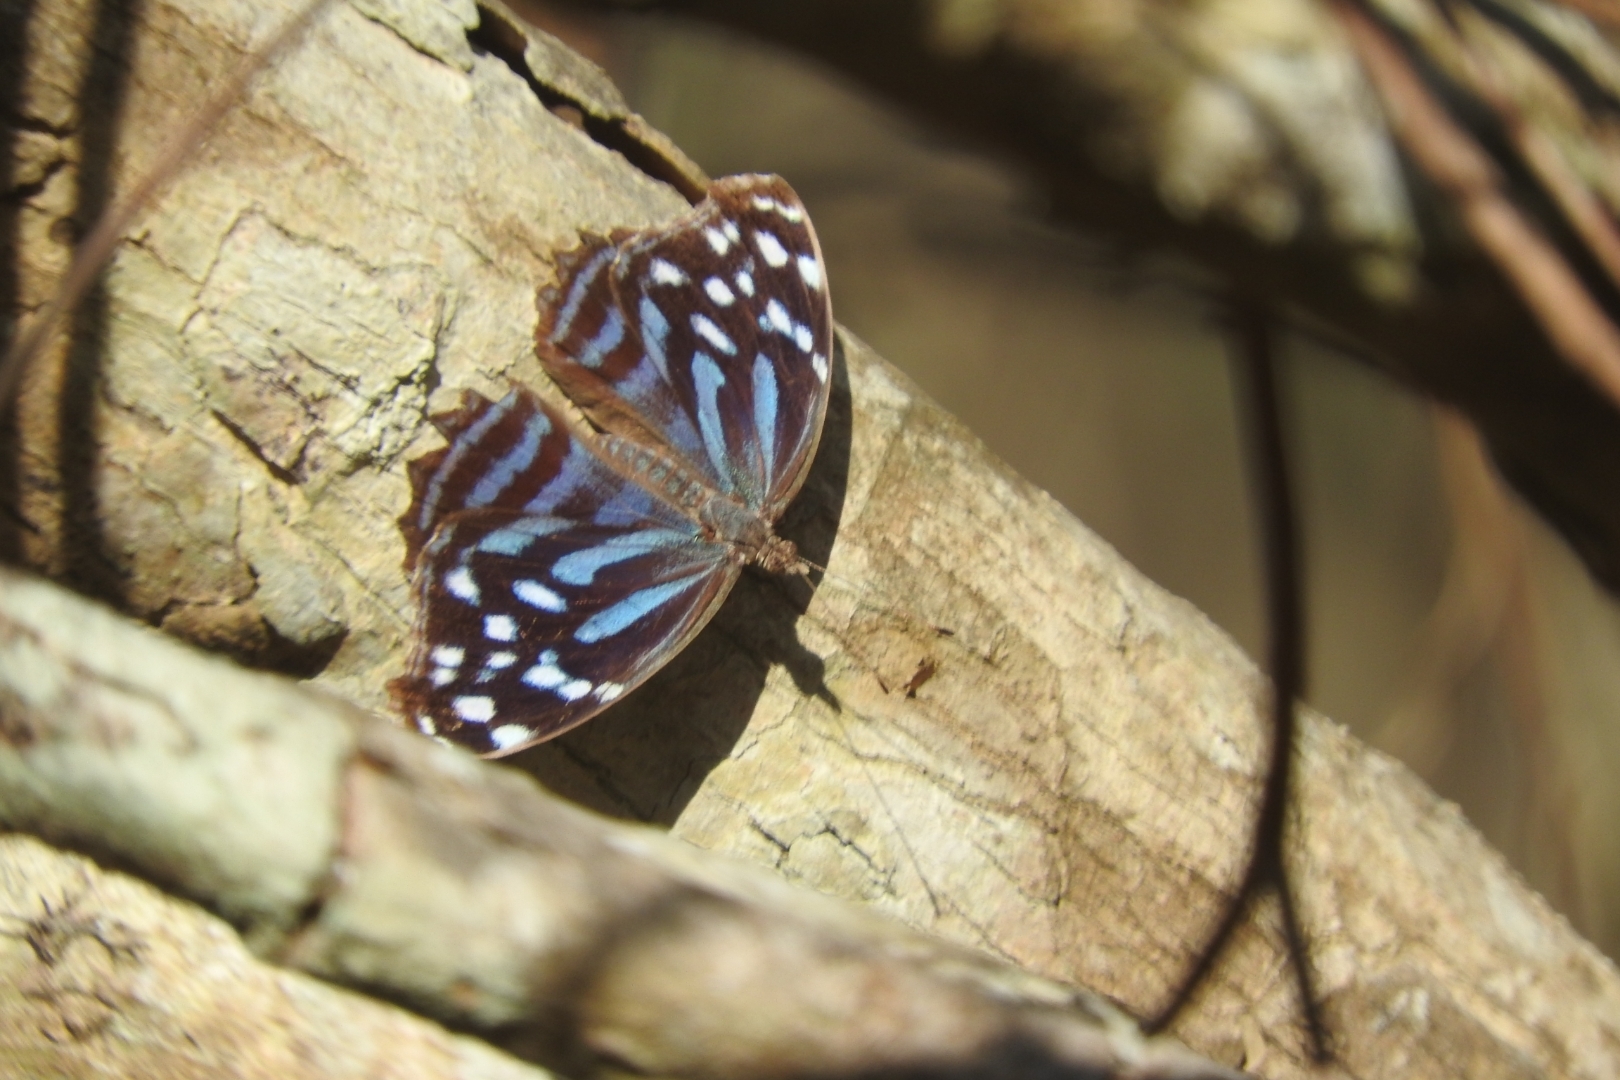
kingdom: Animalia
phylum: Arthropoda
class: Insecta
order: Lepidoptera
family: Nymphalidae
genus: Myscelia
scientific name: Myscelia ethusa
